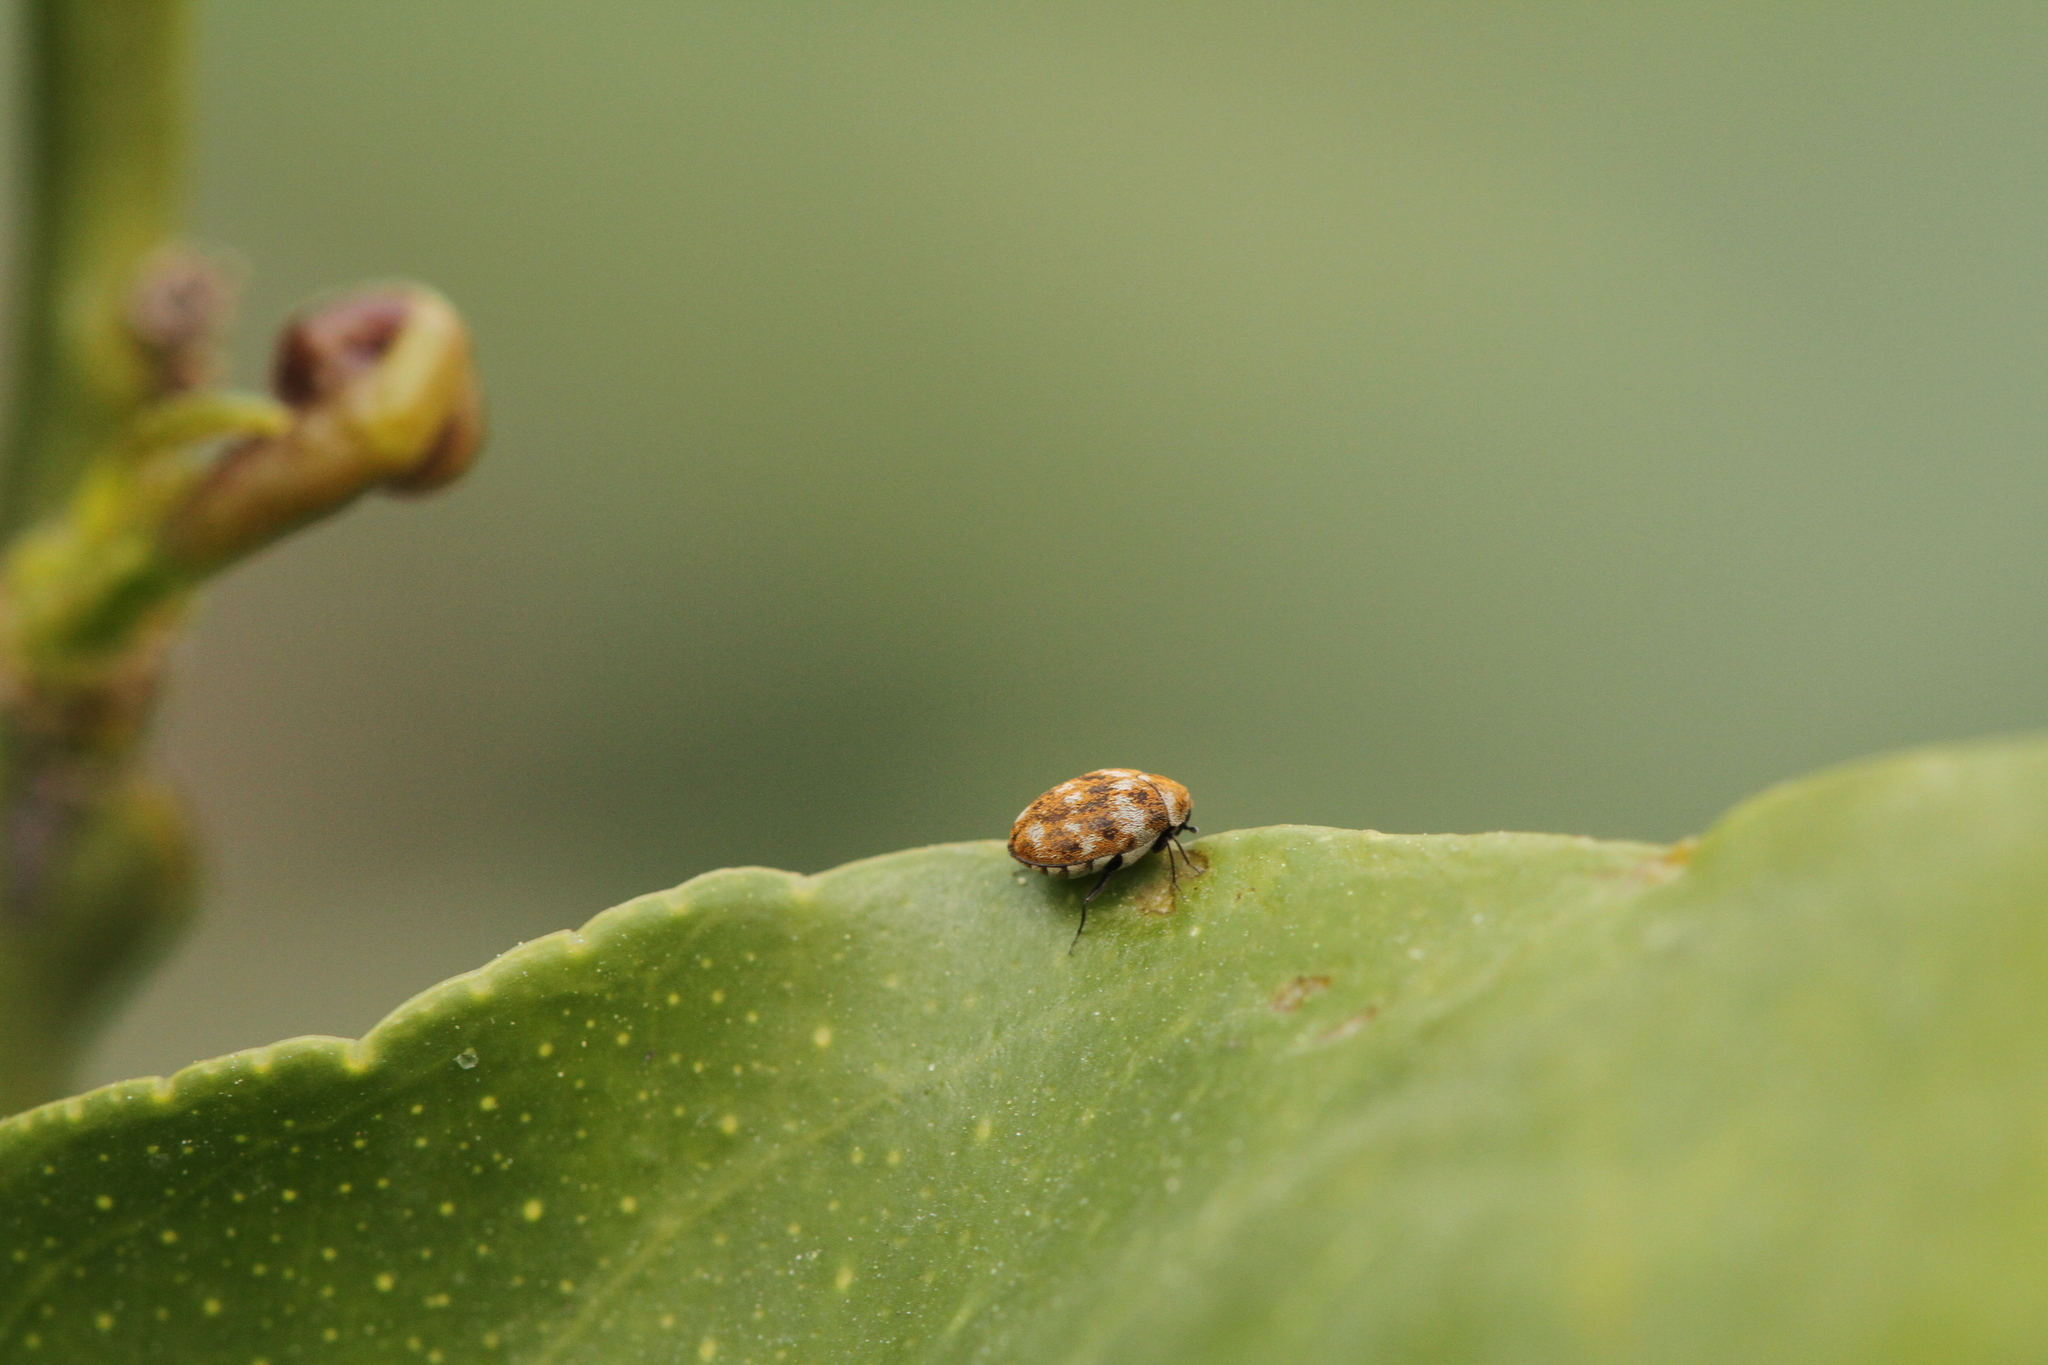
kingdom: Animalia
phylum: Arthropoda
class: Insecta
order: Coleoptera
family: Dermestidae
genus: Anthrenus
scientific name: Anthrenus verbasci
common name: Varied carpet beetle
